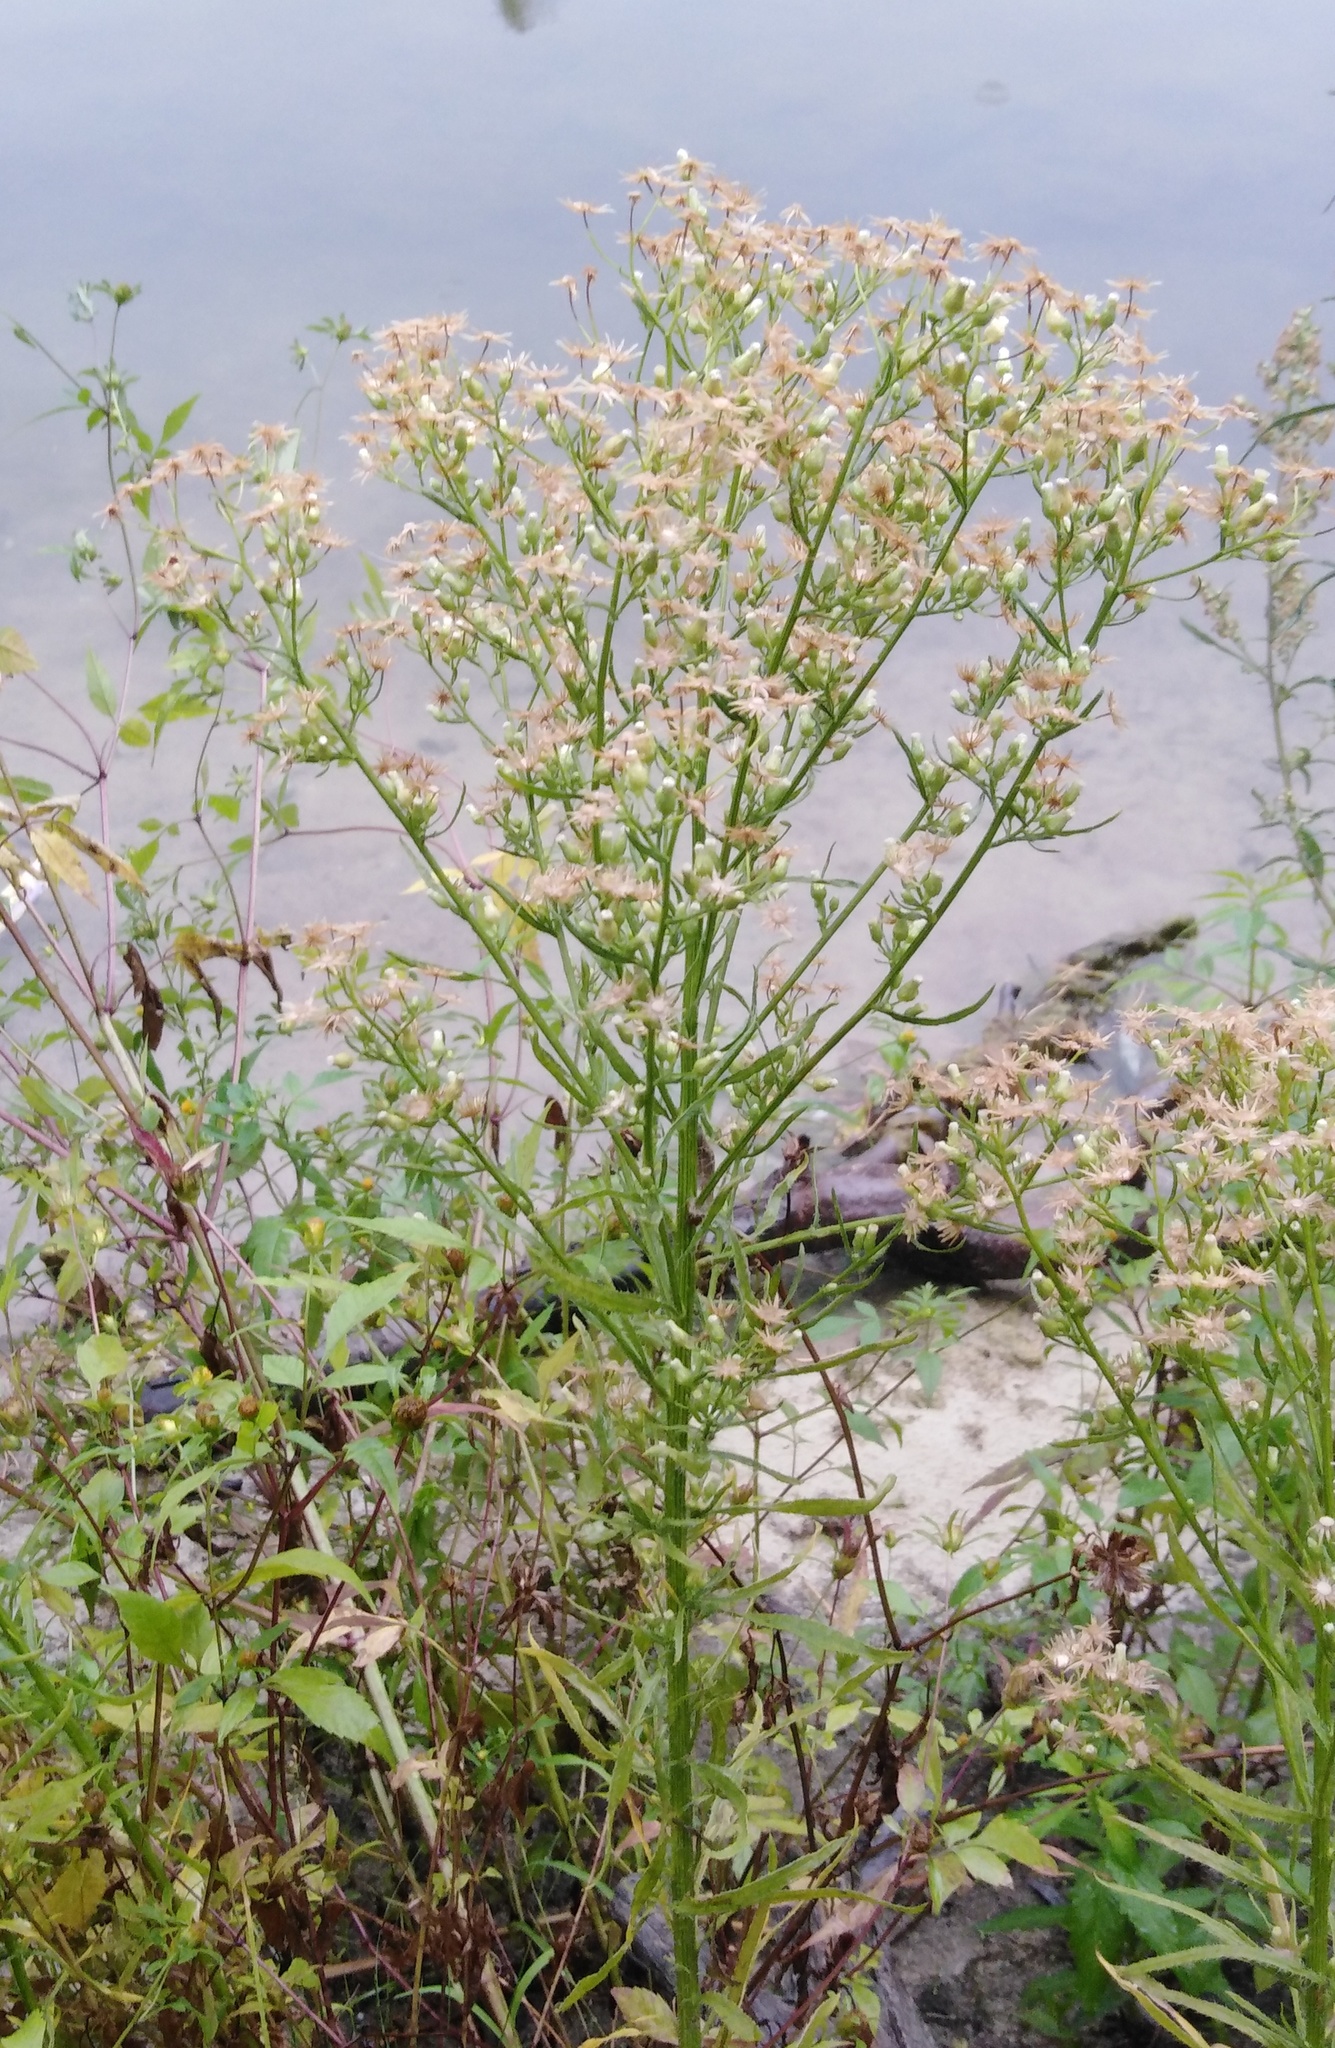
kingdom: Plantae
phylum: Tracheophyta
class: Magnoliopsida
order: Asterales
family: Asteraceae
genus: Erigeron
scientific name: Erigeron canadensis
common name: Canadian fleabane
